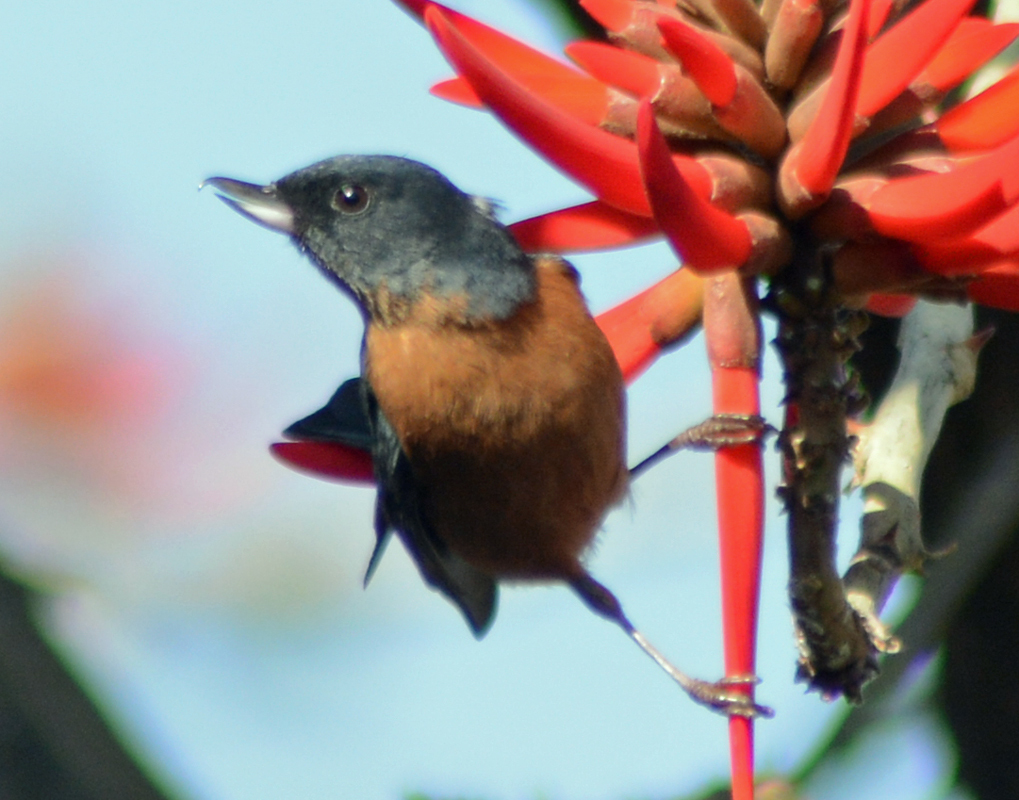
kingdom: Animalia
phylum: Chordata
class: Aves
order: Passeriformes
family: Thraupidae
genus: Diglossa
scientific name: Diglossa baritula
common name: Cinnamon-bellied flowerpiercer
